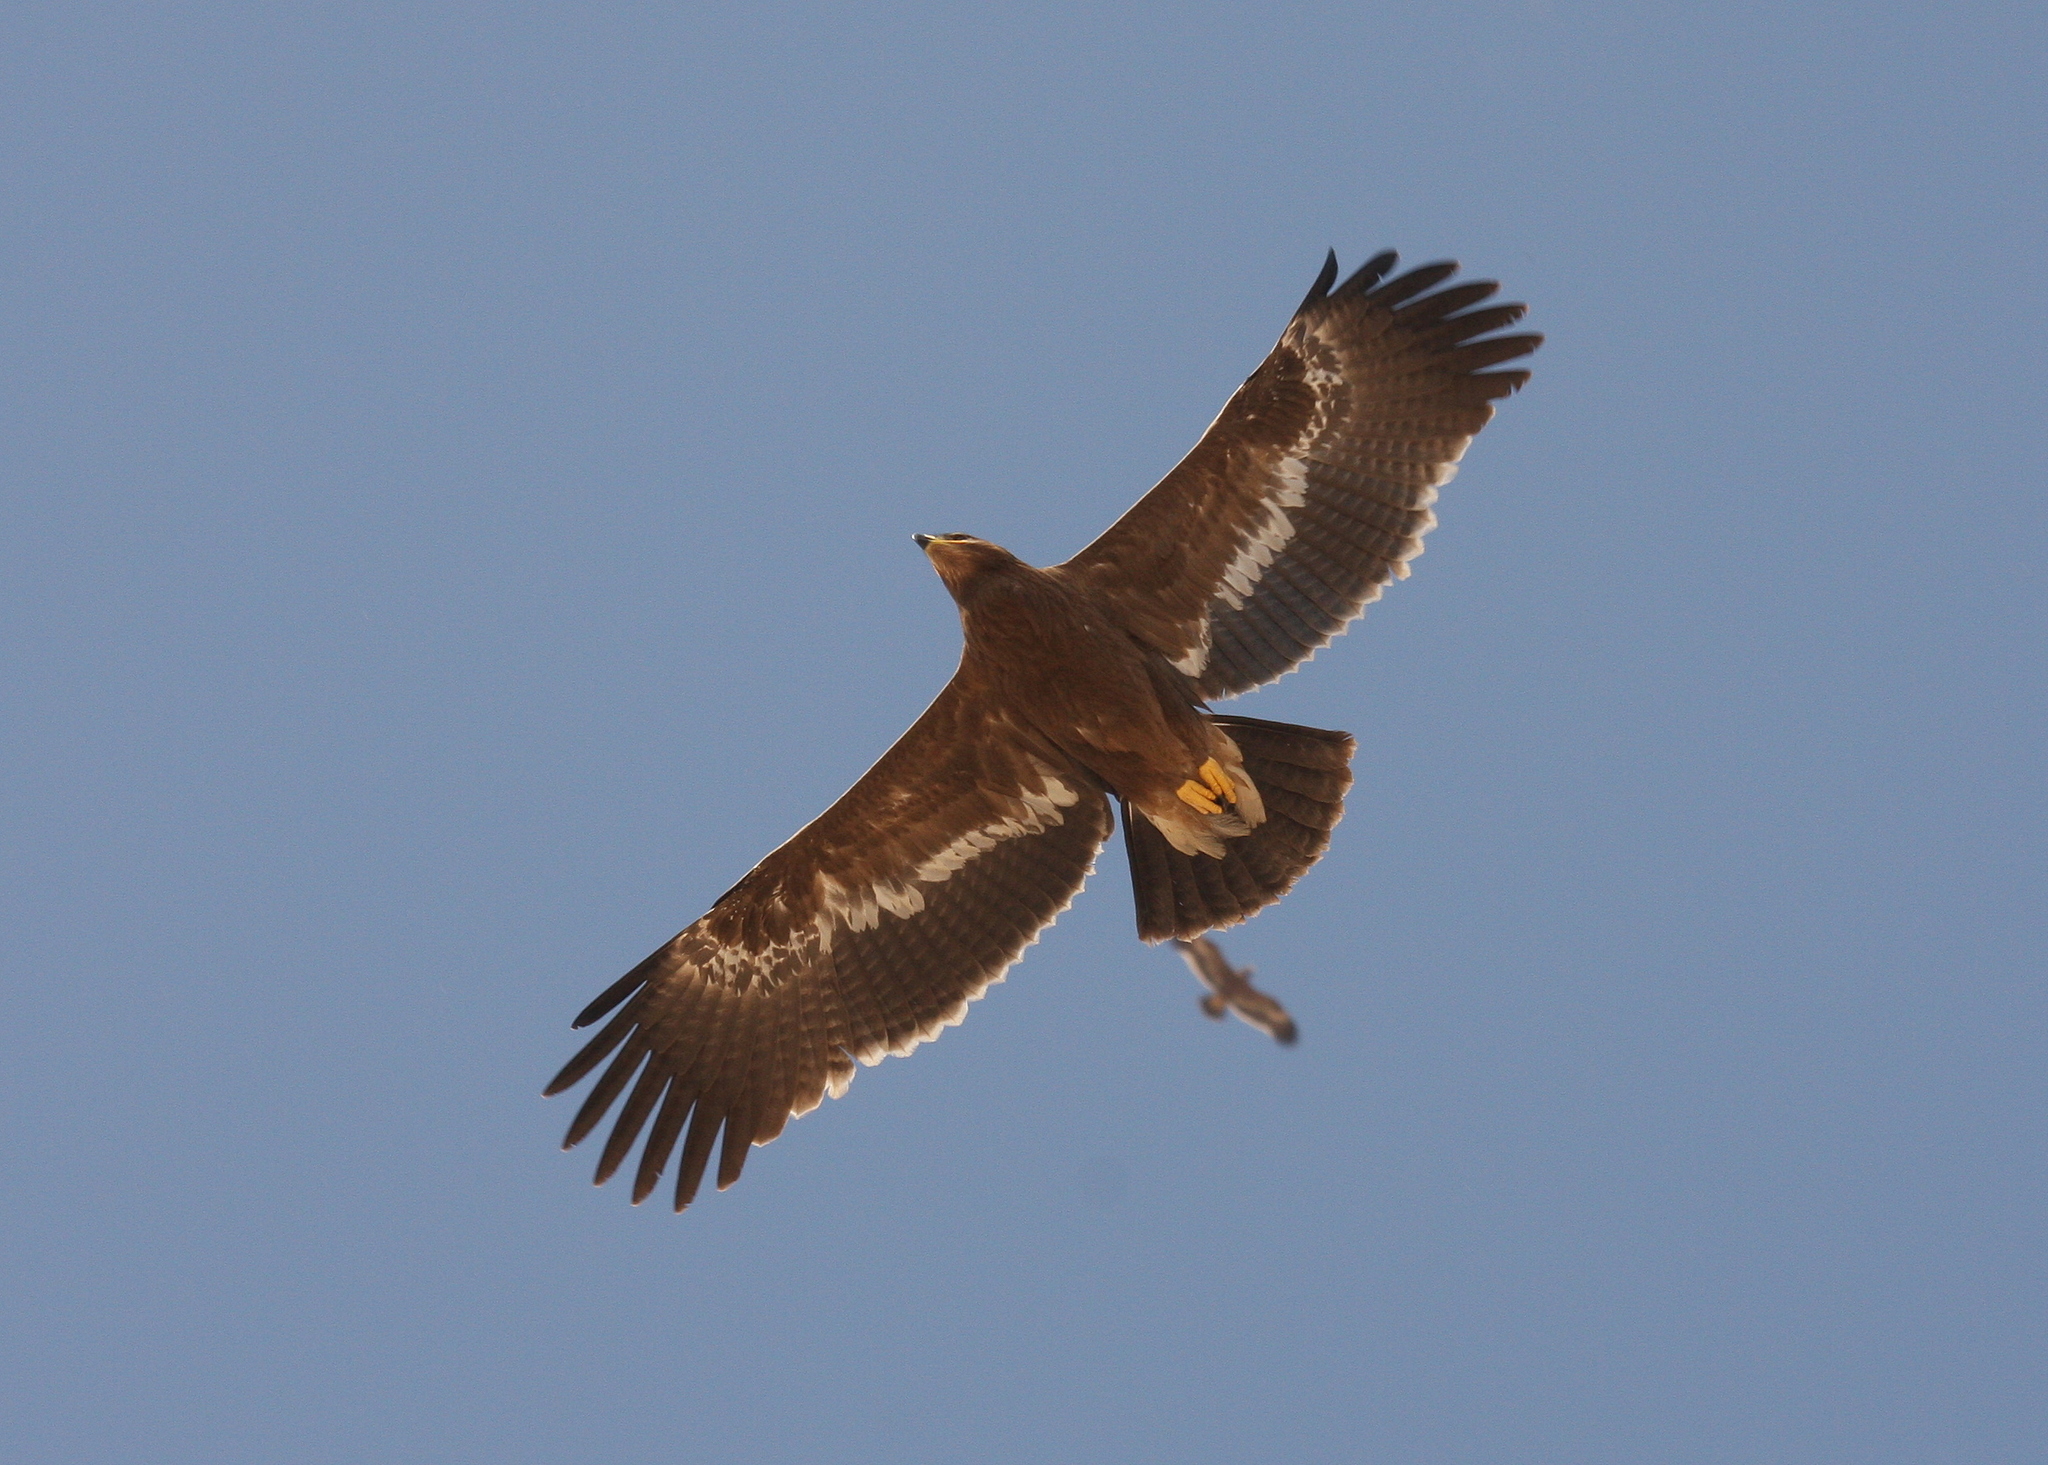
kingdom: Animalia
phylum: Chordata
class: Aves
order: Accipitriformes
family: Accipitridae
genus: Aquila
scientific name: Aquila nipalensis
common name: Steppe eagle
